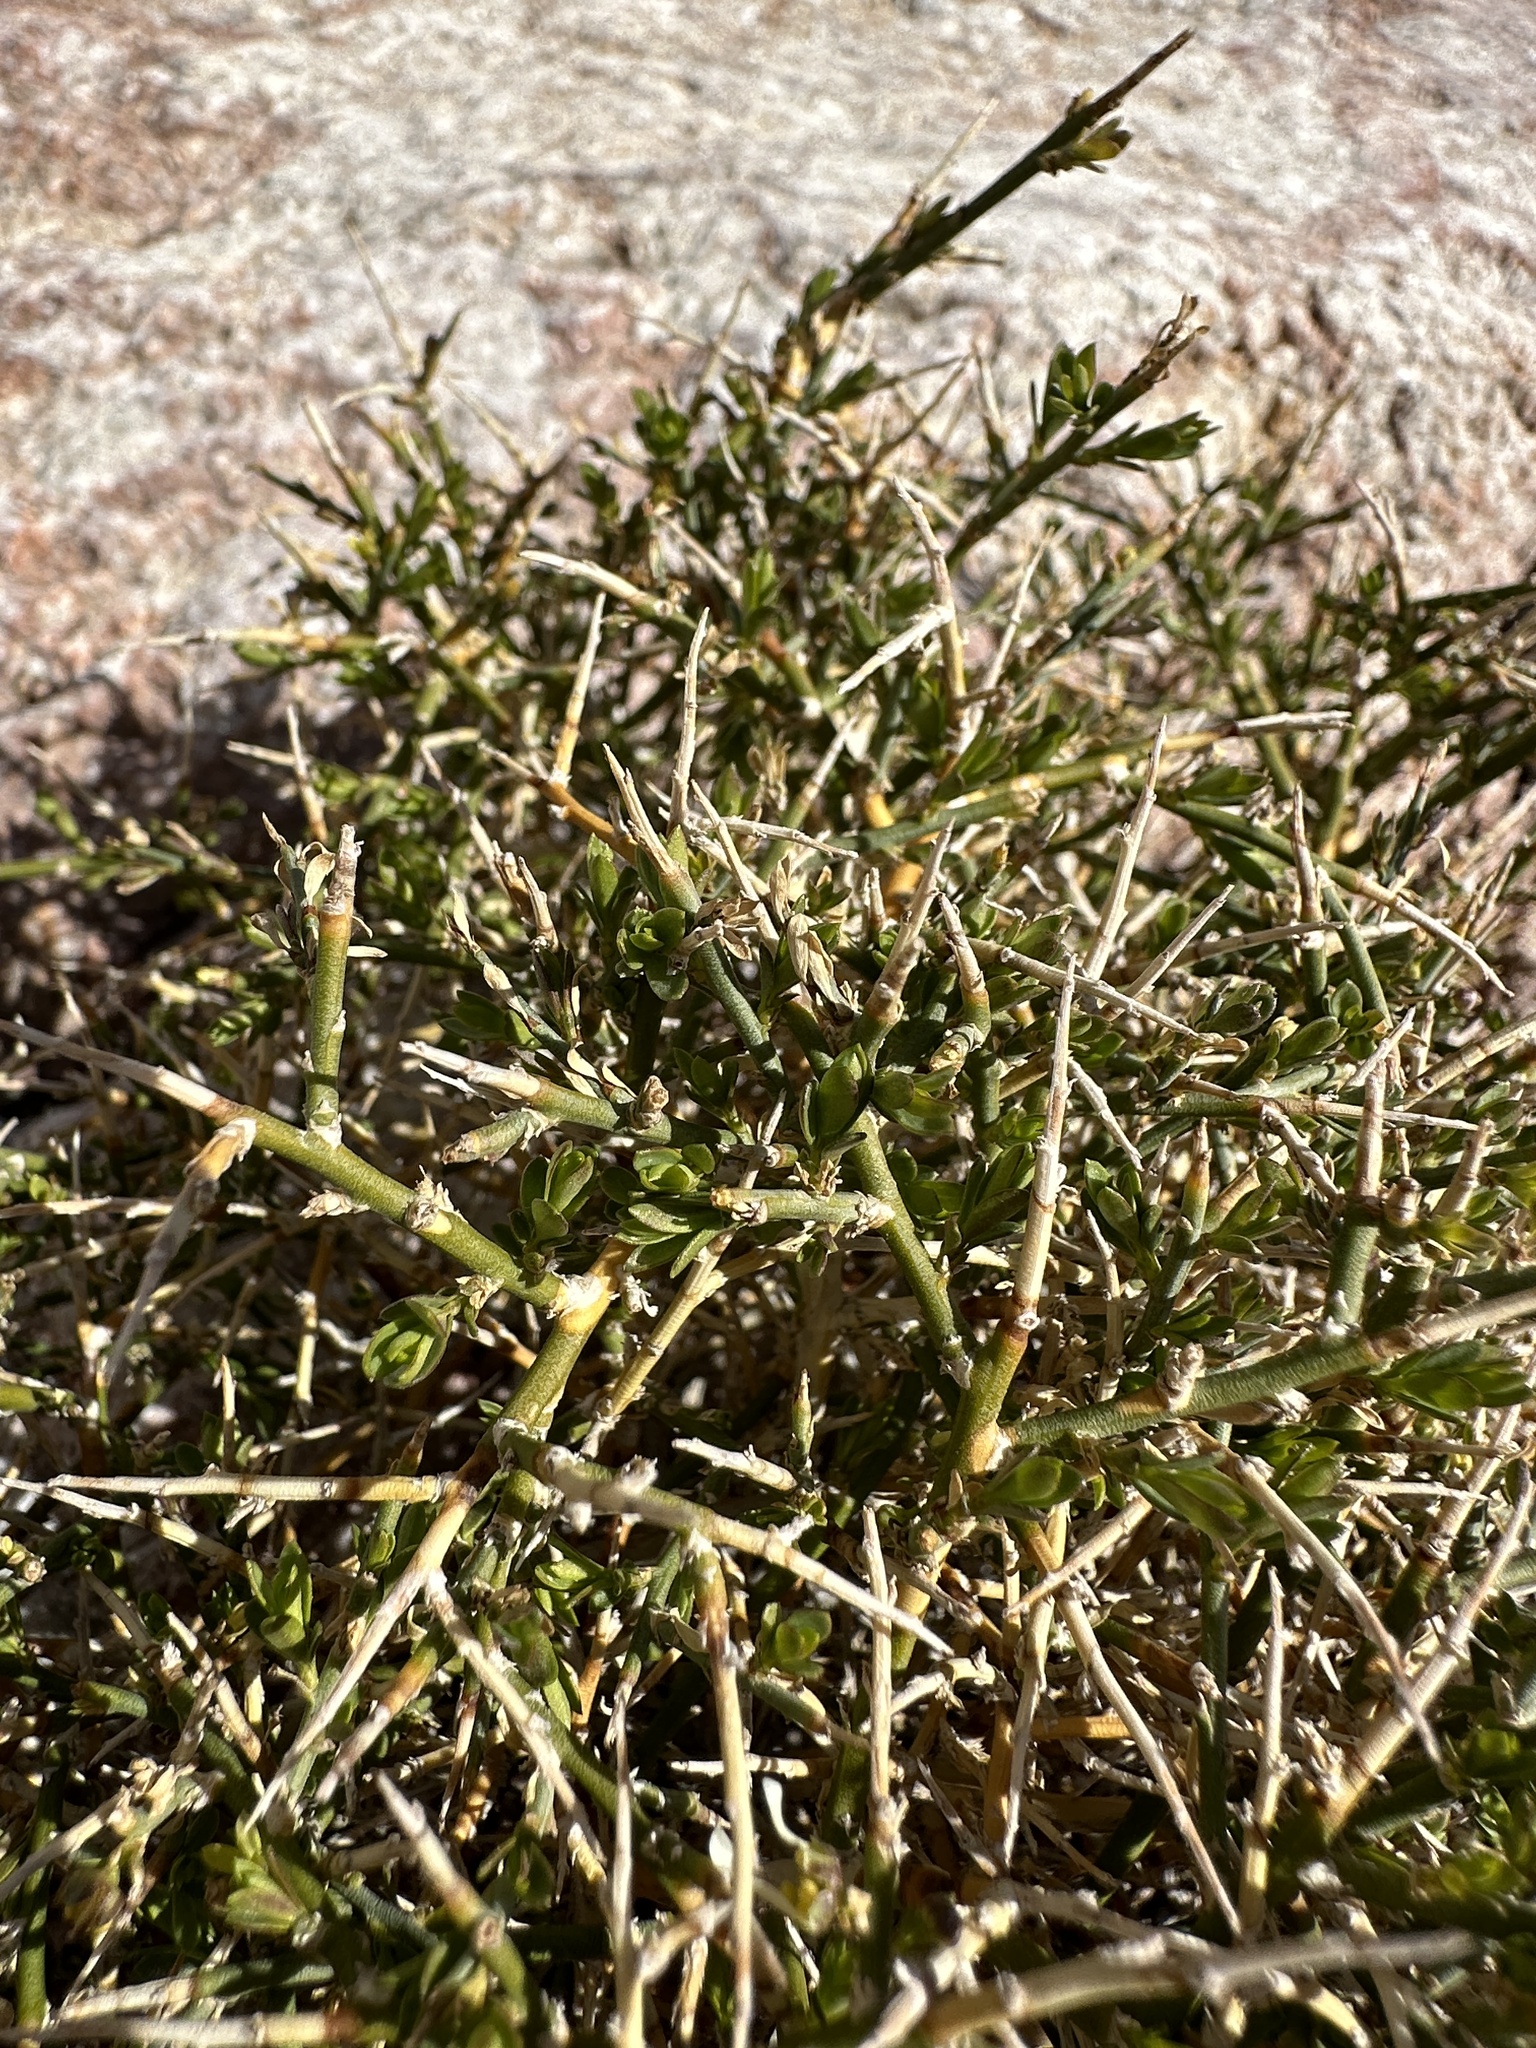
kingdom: Plantae
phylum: Tracheophyta
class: Magnoliopsida
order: Crossosomatales
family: Crossosomataceae
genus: Glossopetalon
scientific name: Glossopetalon spinescens
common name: Spring greasebush
